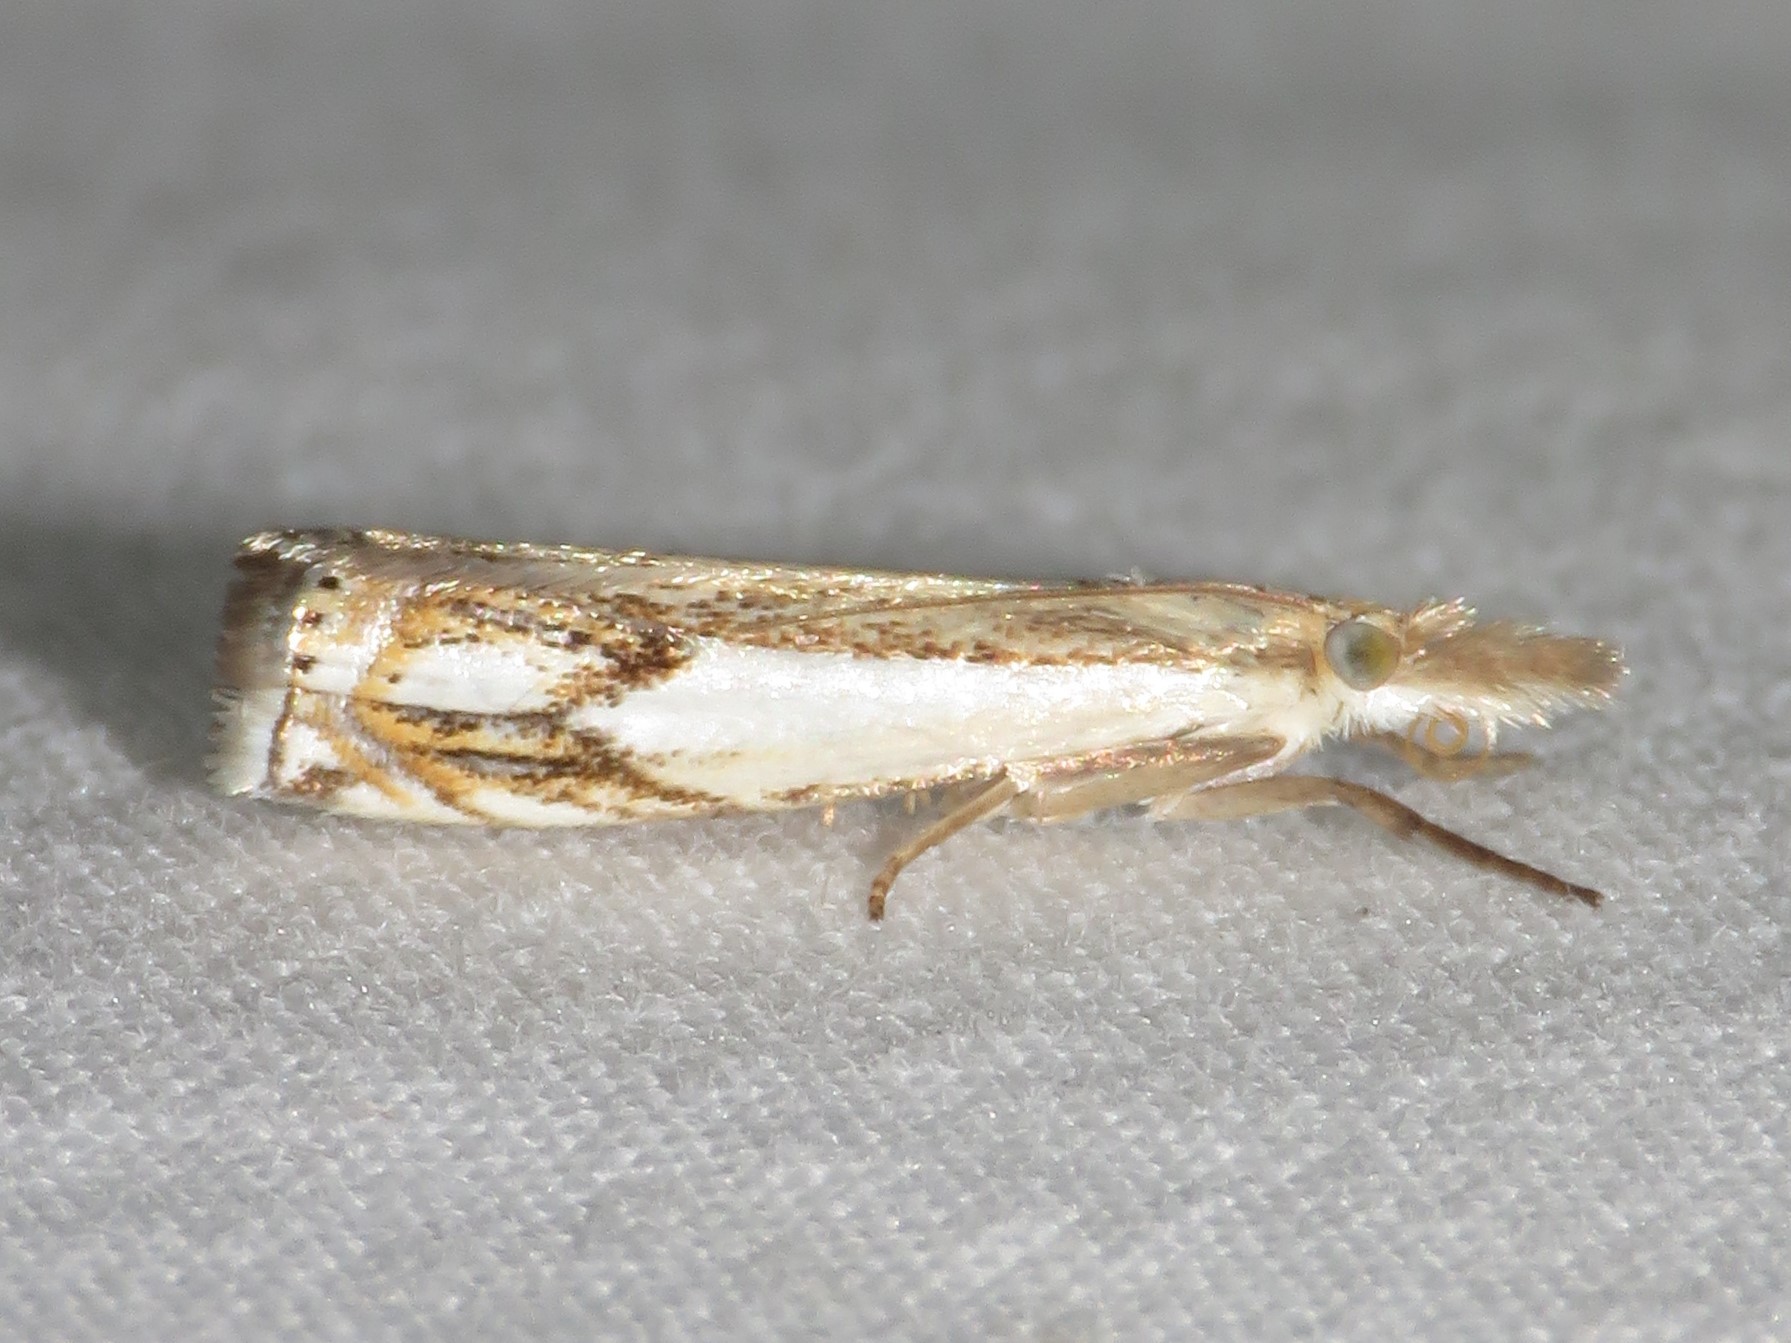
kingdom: Animalia
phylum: Arthropoda
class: Insecta
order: Lepidoptera
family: Crambidae
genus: Crambus
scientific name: Crambus agitatellus
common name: Double-banded grass-veneer
